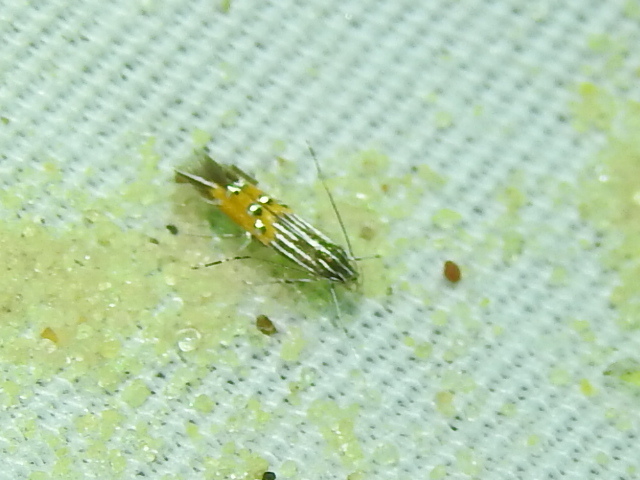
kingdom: Animalia
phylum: Arthropoda
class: Insecta
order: Lepidoptera
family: Cosmopterigidae
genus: Cosmopterix
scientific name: Cosmopterix quadrilineella
